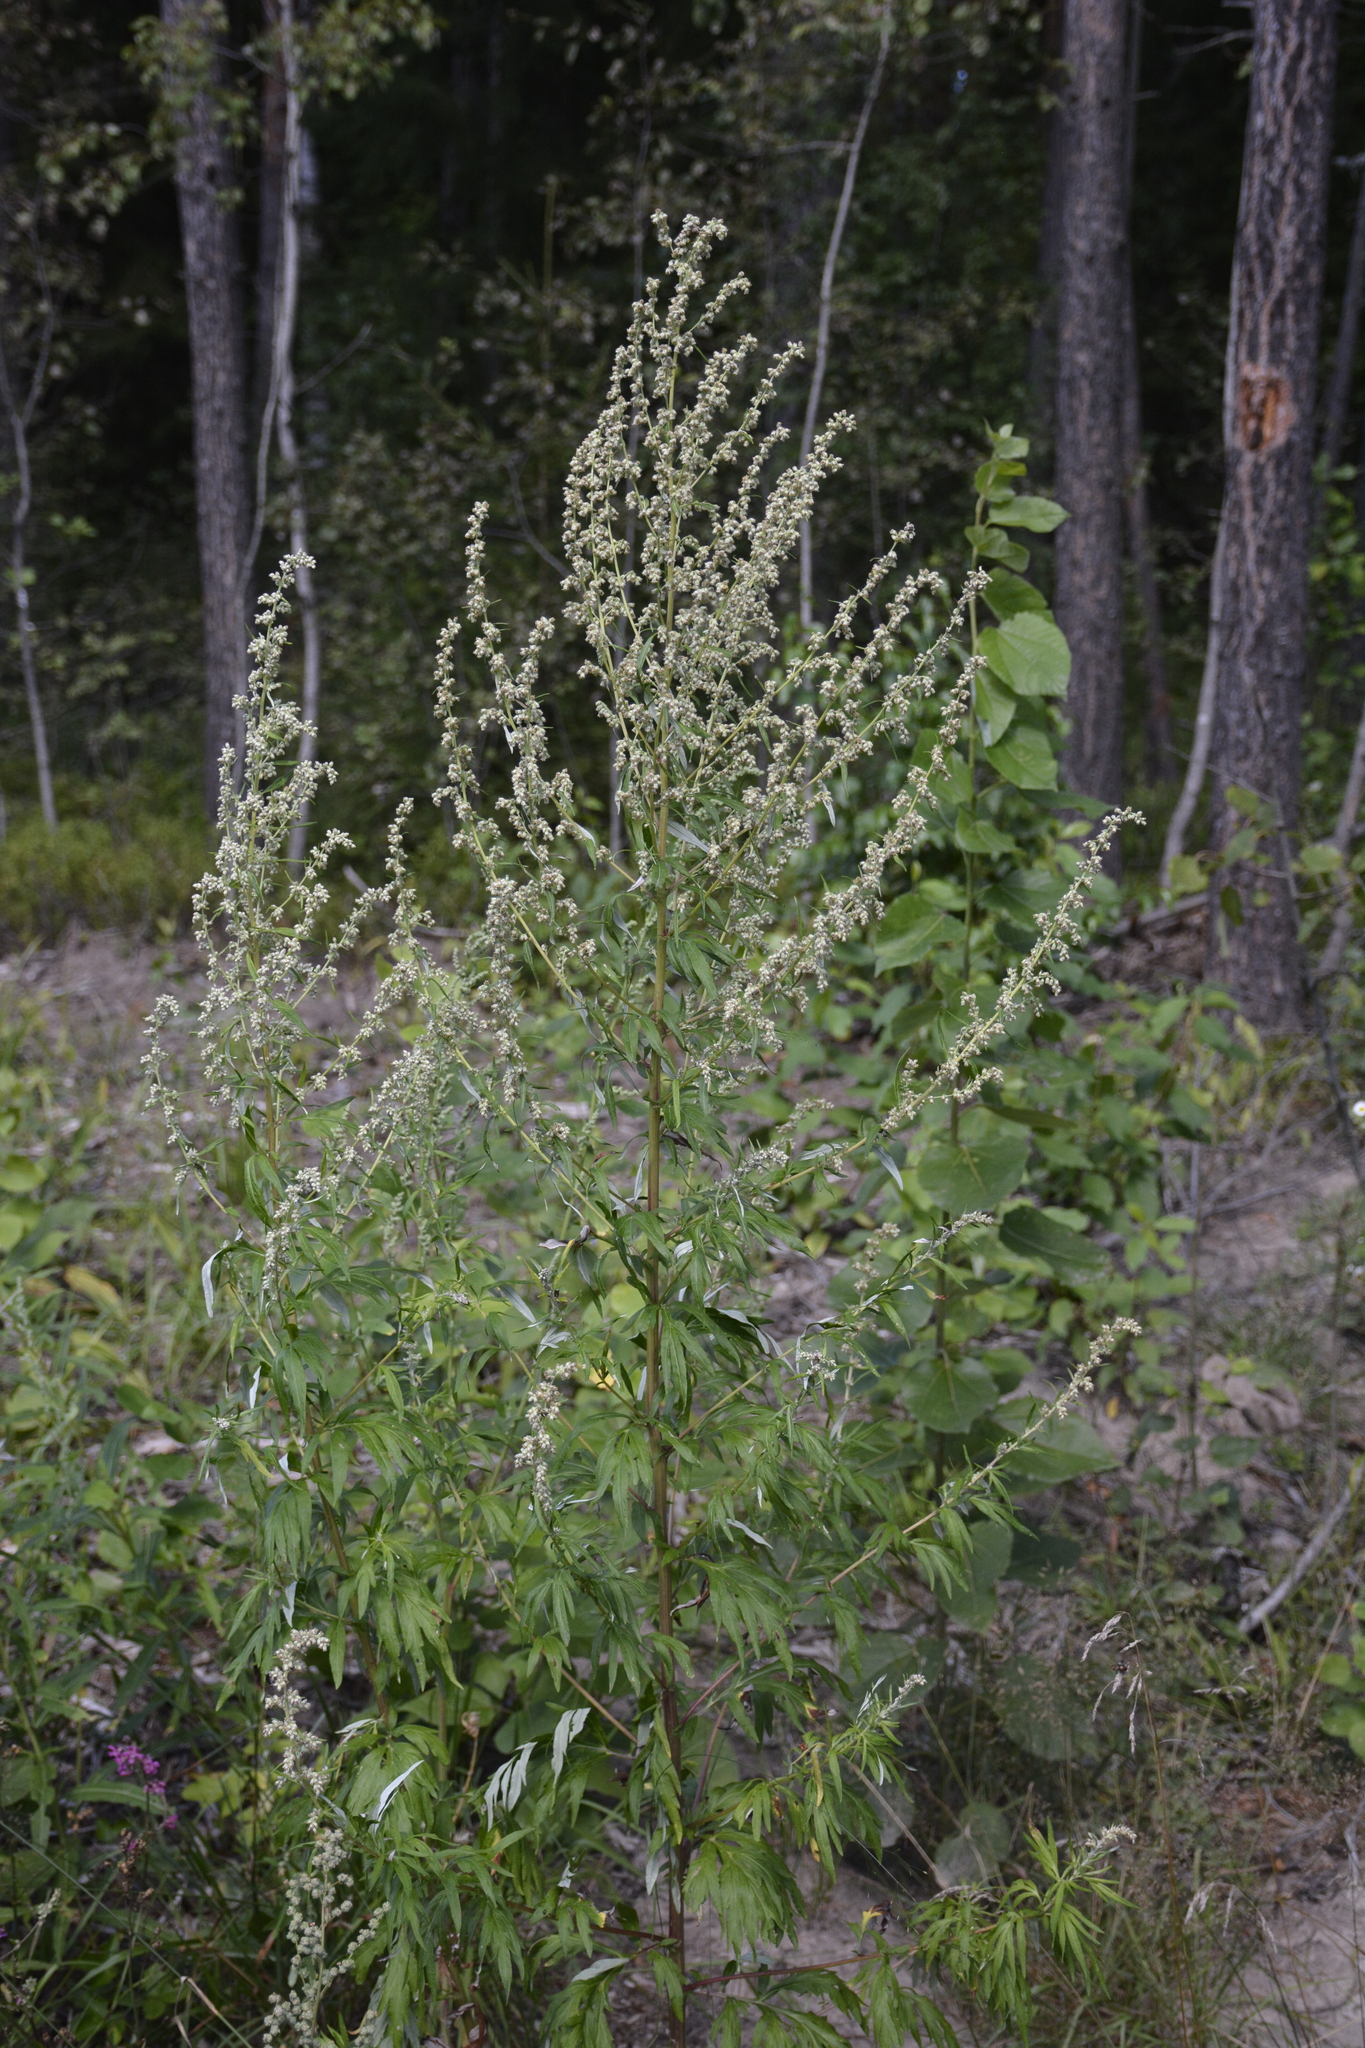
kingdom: Plantae
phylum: Tracheophyta
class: Magnoliopsida
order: Asterales
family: Asteraceae
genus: Artemisia
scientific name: Artemisia vulgaris
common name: Mugwort
